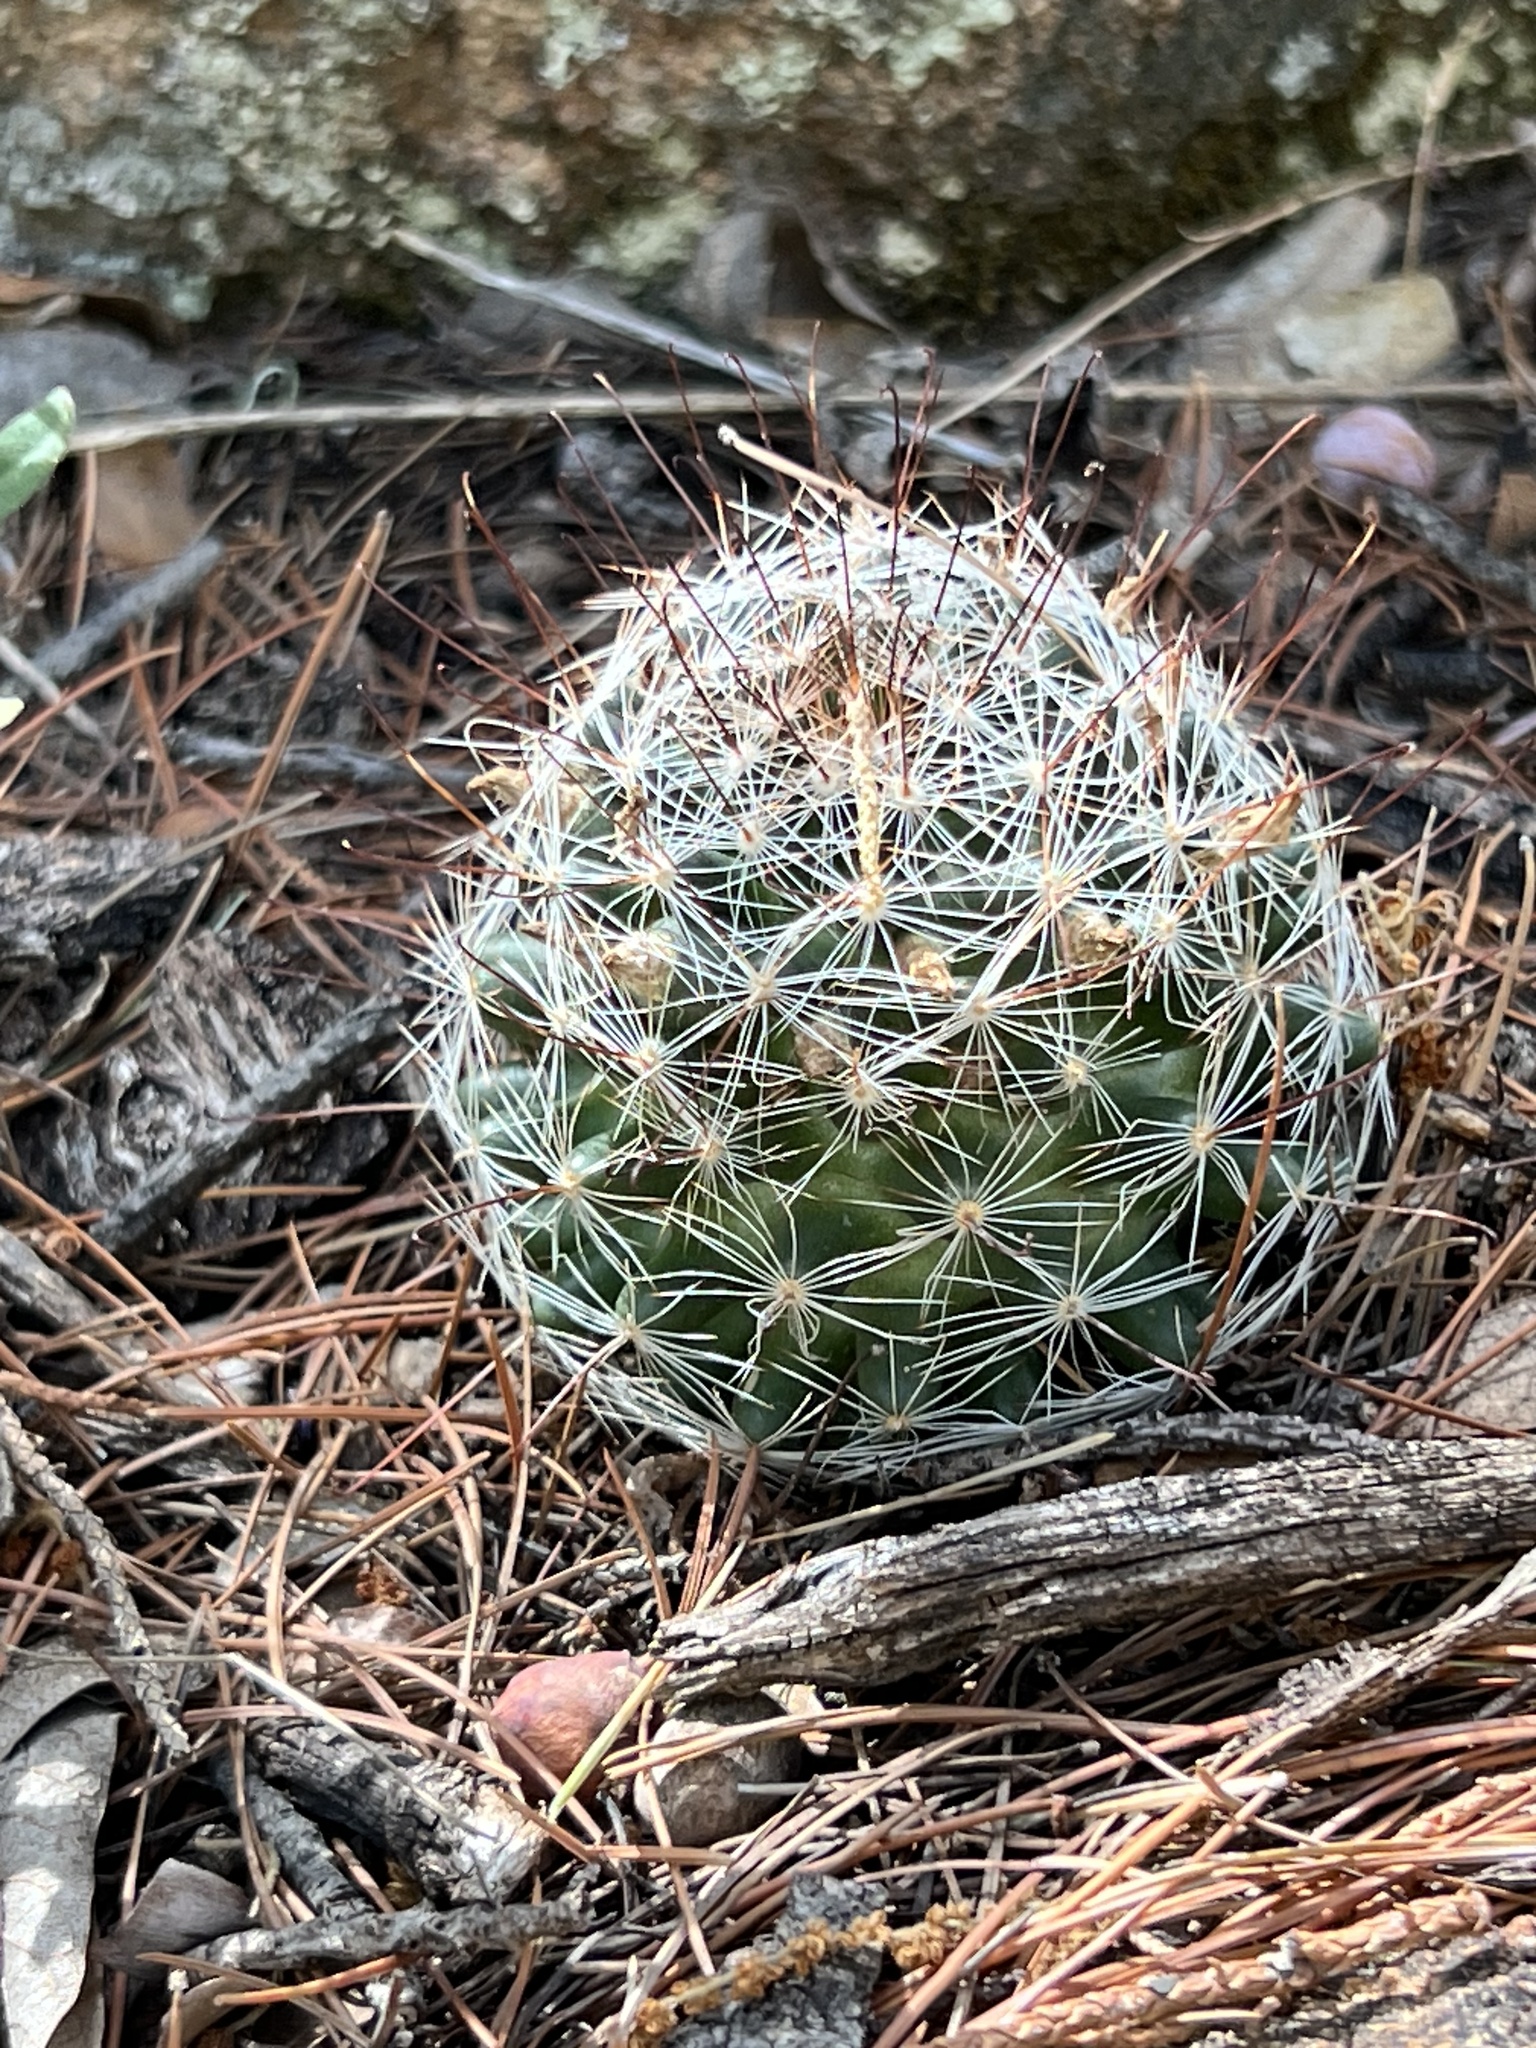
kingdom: Plantae
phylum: Tracheophyta
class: Magnoliopsida
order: Caryophyllales
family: Cactaceae
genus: Cochemiea
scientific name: Cochemiea wrightii
